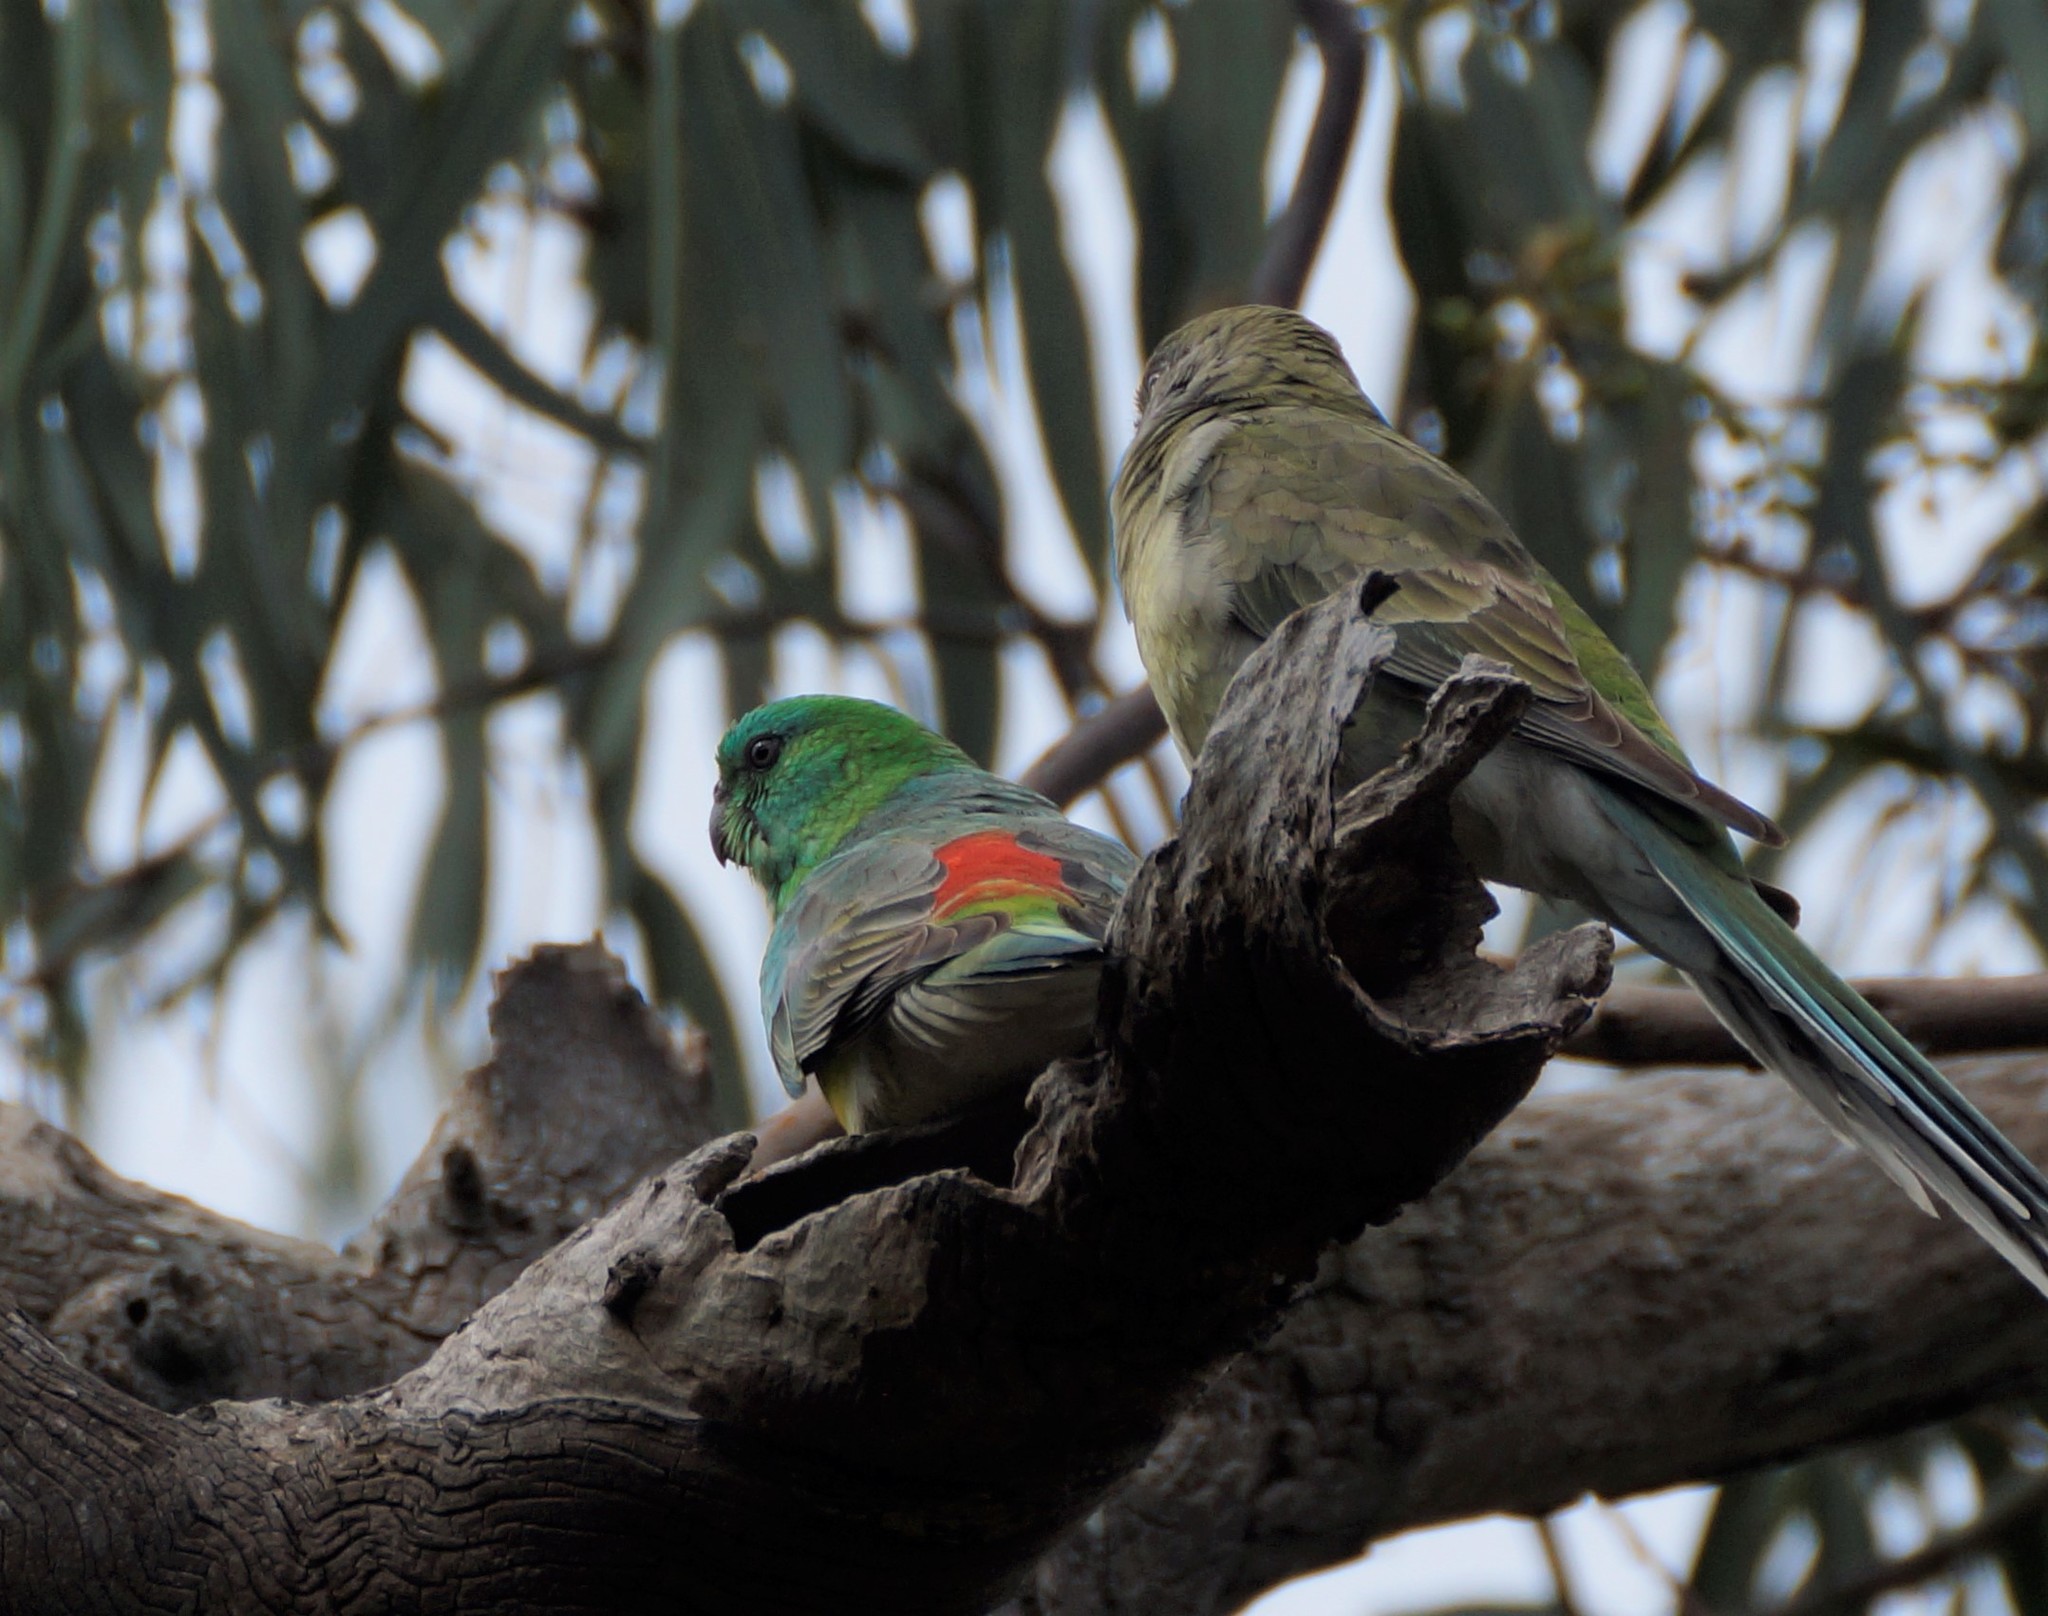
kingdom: Animalia
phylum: Chordata
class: Aves
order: Psittaciformes
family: Psittacidae
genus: Psephotus
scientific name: Psephotus haematonotus
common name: Red-rumped parrot
